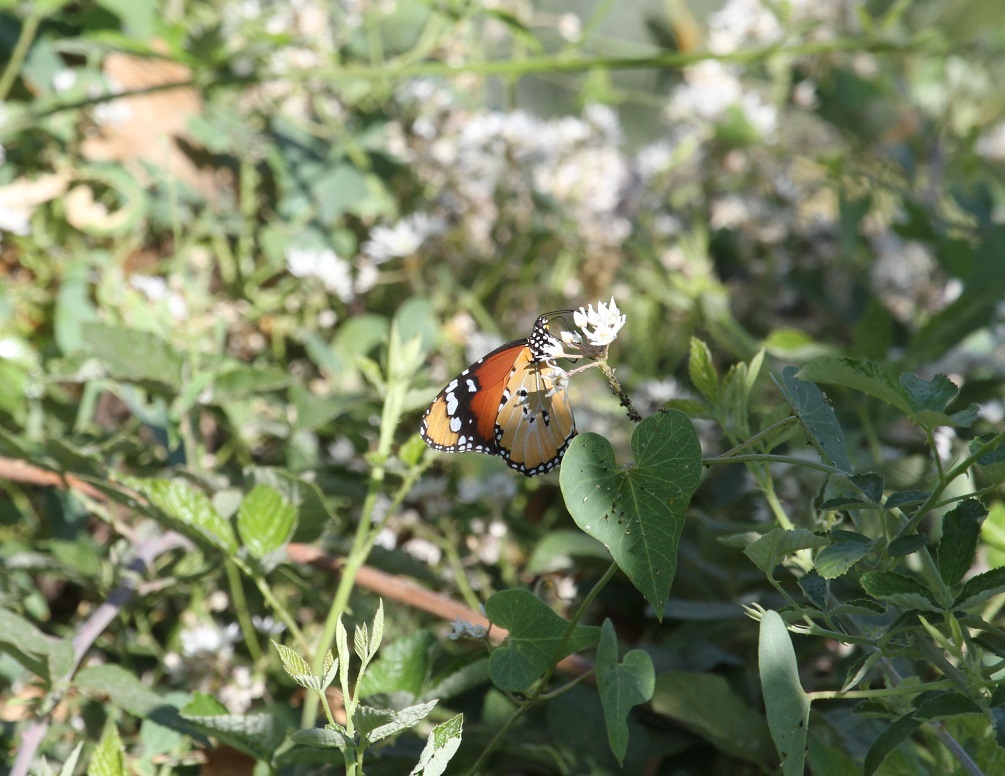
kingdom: Animalia
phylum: Arthropoda
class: Insecta
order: Lepidoptera
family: Nymphalidae
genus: Danaus
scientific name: Danaus chrysippus
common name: Plain tiger
